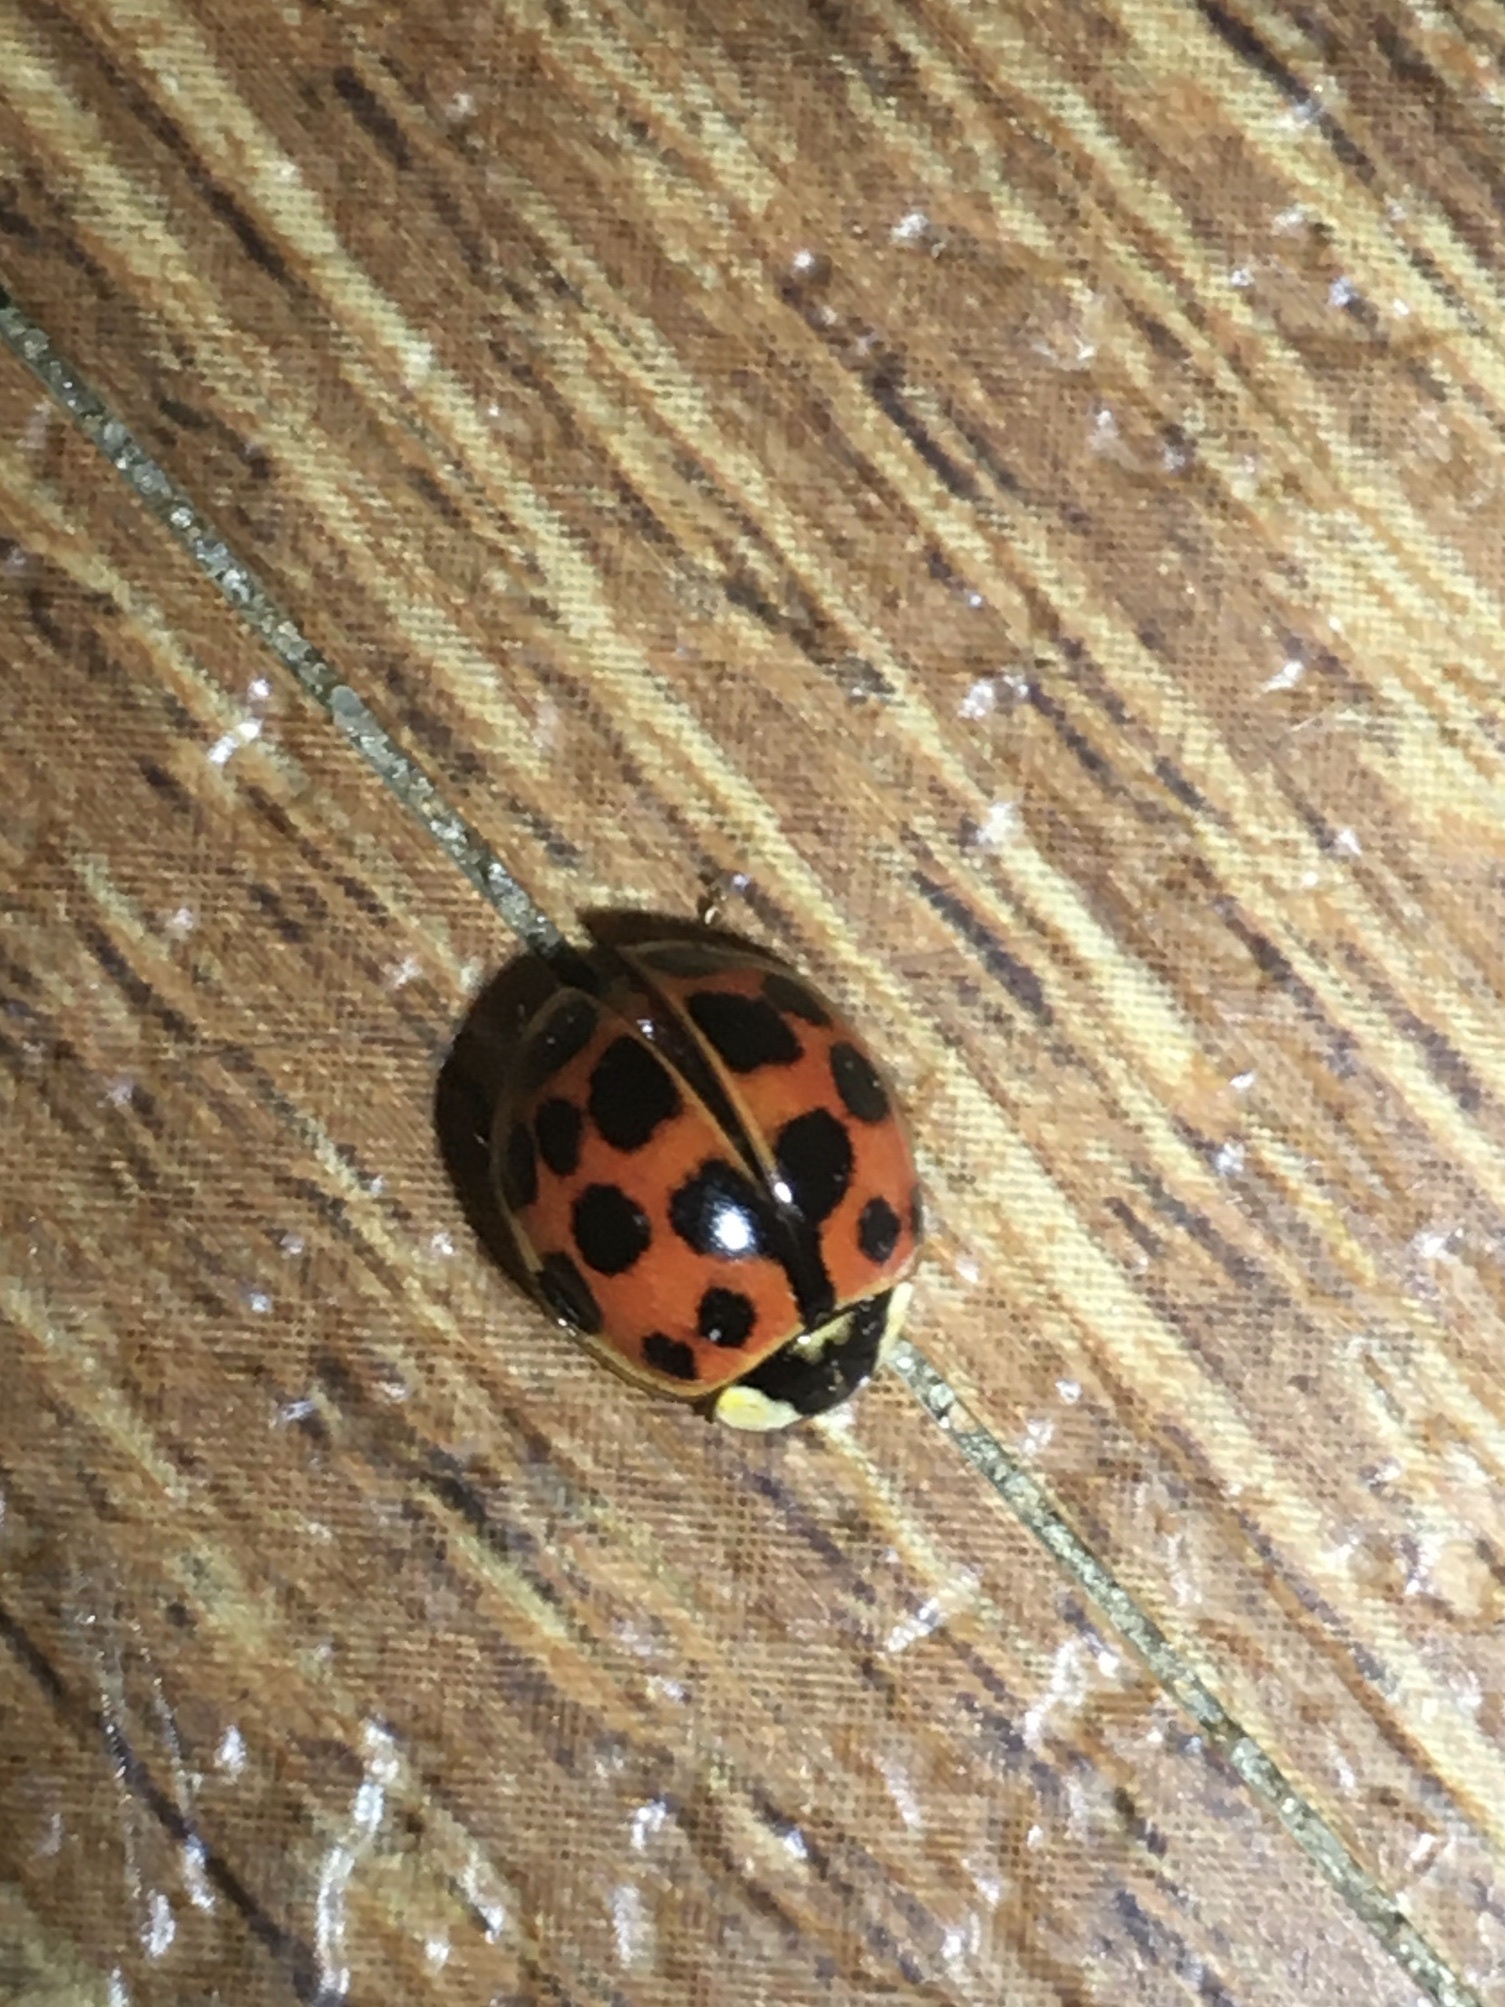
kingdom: Animalia
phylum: Arthropoda
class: Insecta
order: Coleoptera
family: Coccinellidae
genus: Harmonia
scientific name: Harmonia axyridis
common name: Harlequin ladybird
